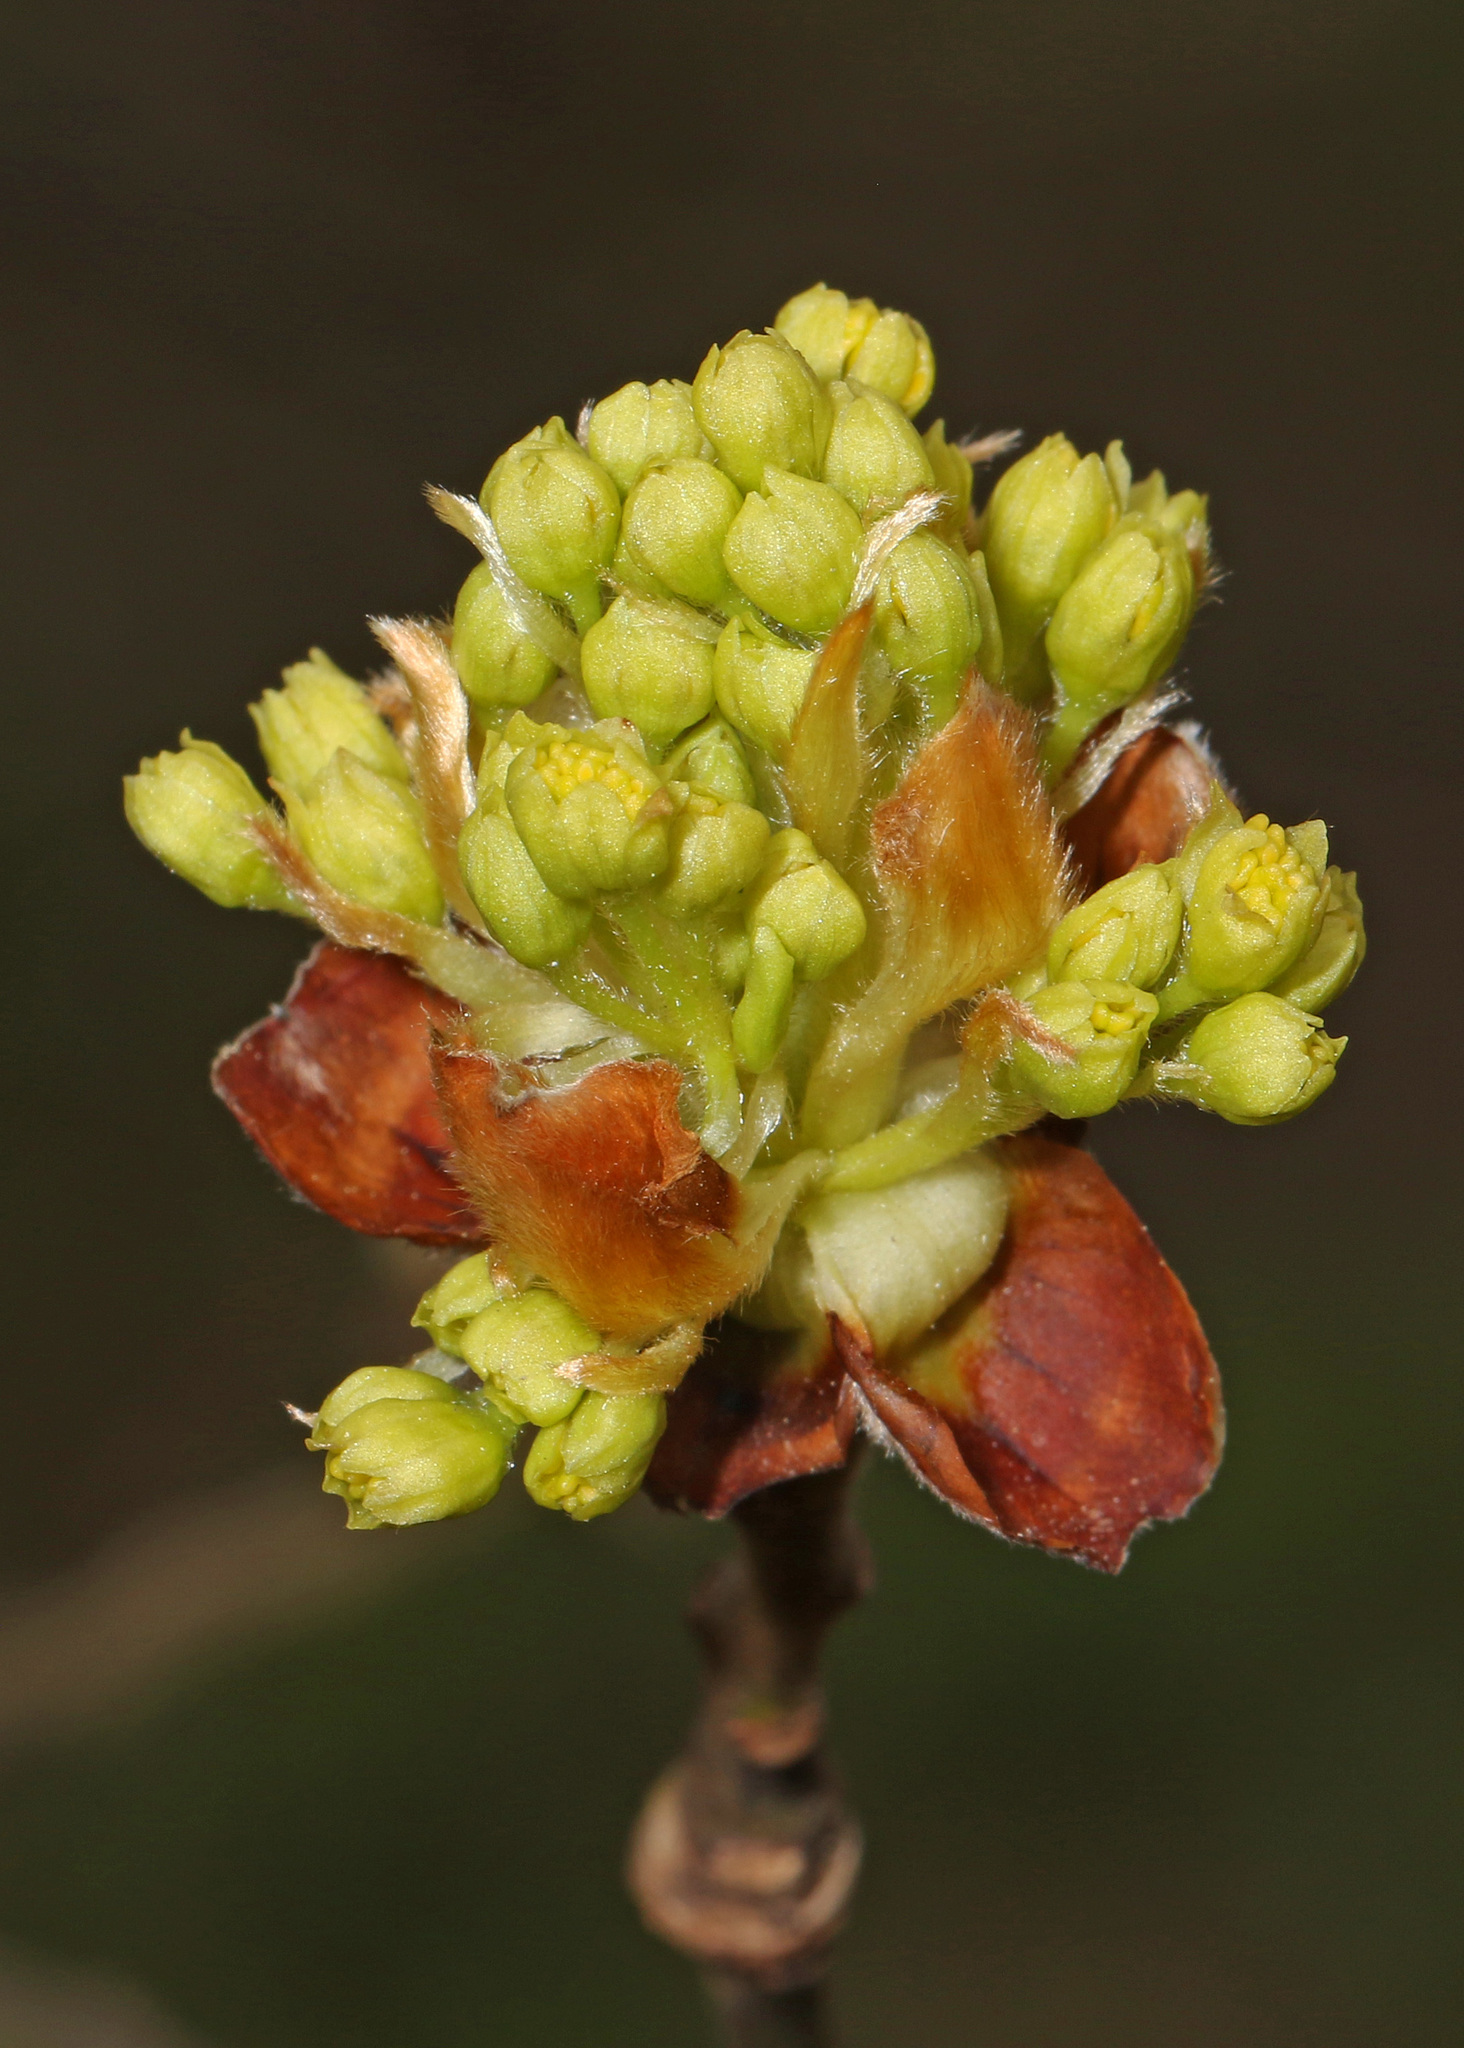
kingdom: Plantae
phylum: Tracheophyta
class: Magnoliopsida
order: Laurales
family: Lauraceae
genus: Sassafras
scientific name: Sassafras albidum
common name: Sassafras
